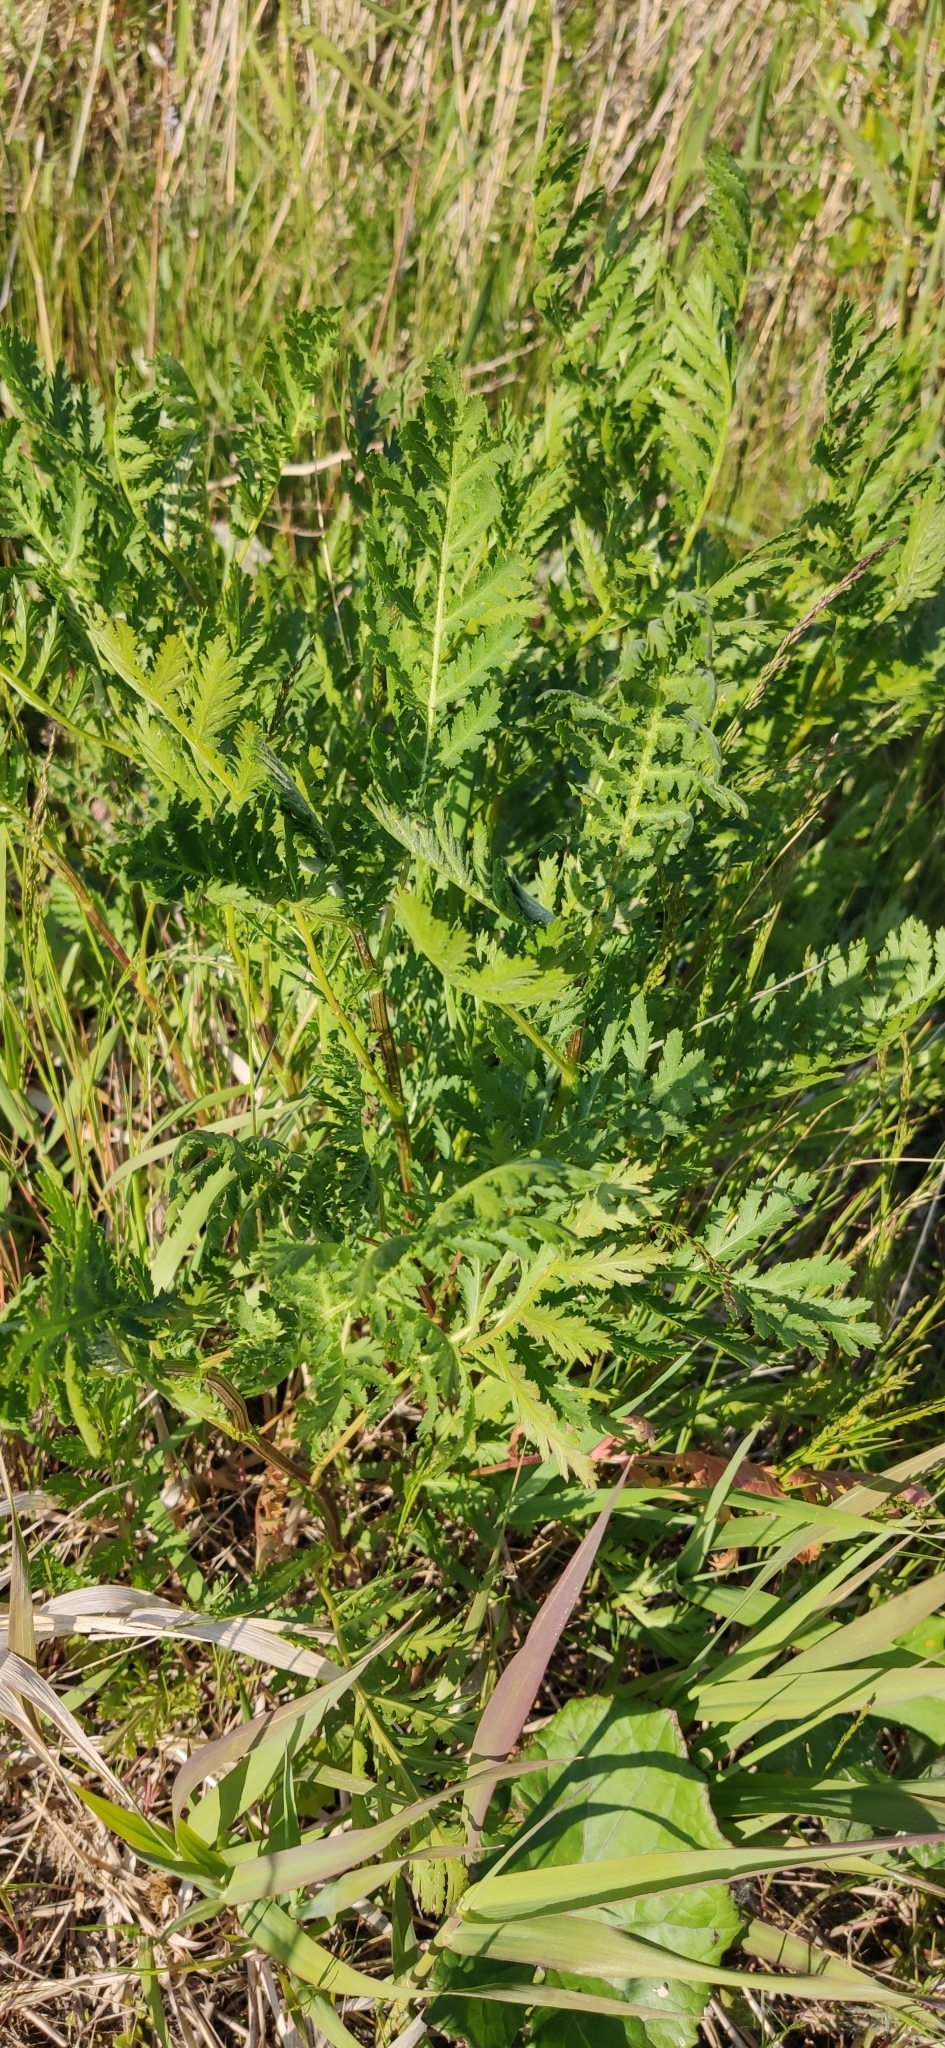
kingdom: Plantae
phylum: Tracheophyta
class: Magnoliopsida
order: Asterales
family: Asteraceae
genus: Tanacetum
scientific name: Tanacetum vulgare
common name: Common tansy
